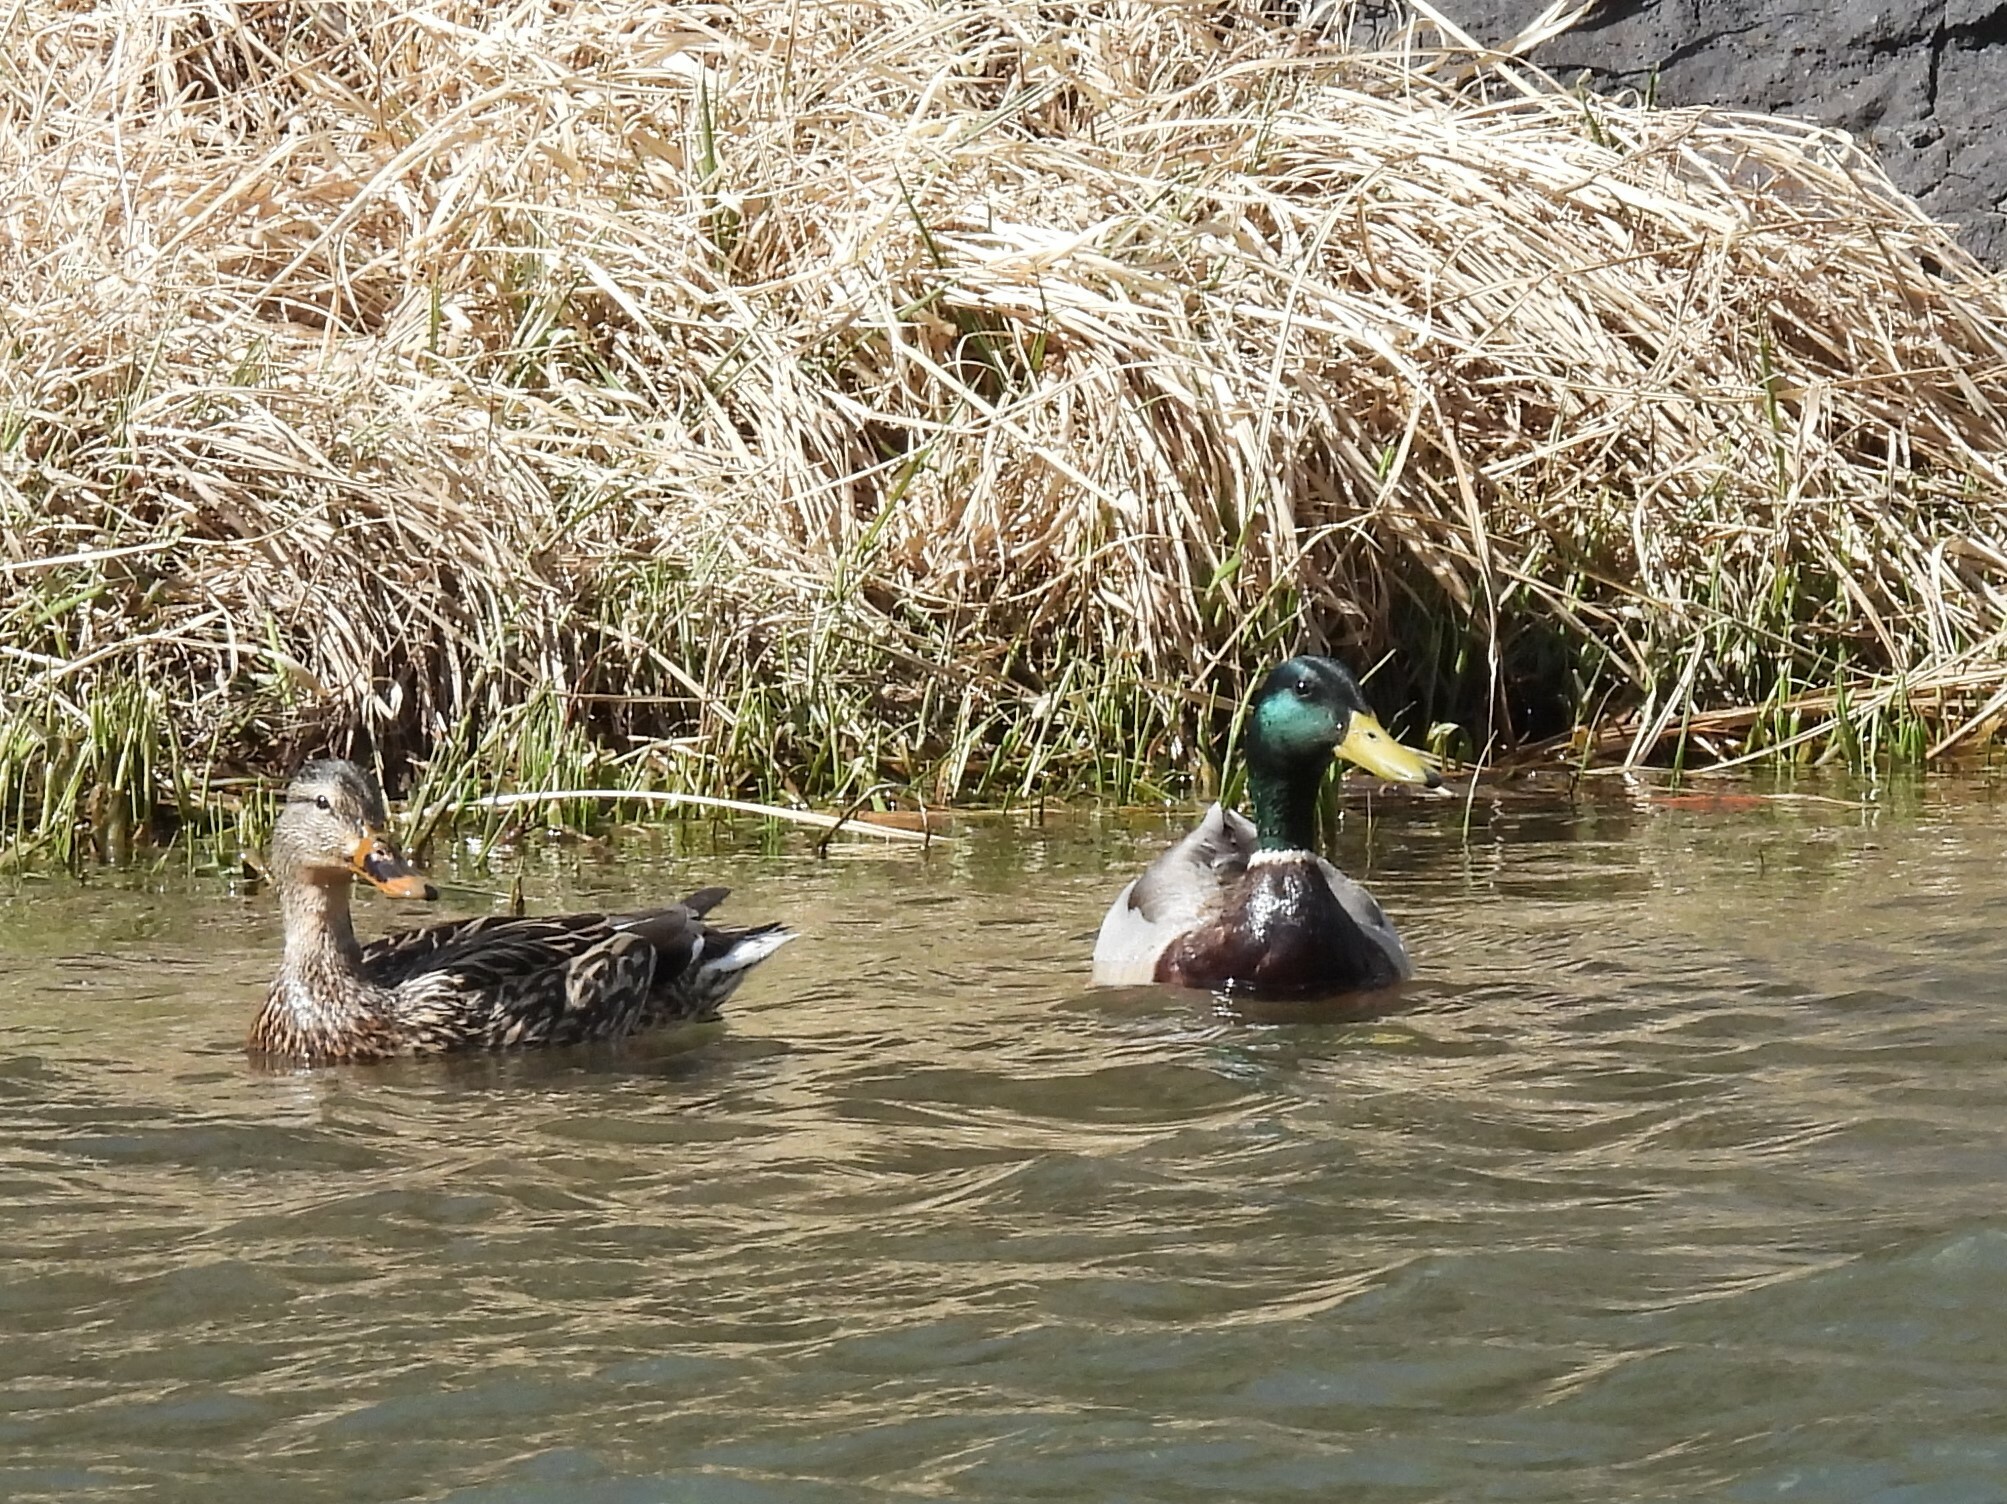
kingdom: Animalia
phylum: Chordata
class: Aves
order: Anseriformes
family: Anatidae
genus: Anas
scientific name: Anas platyrhynchos
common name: Mallard
